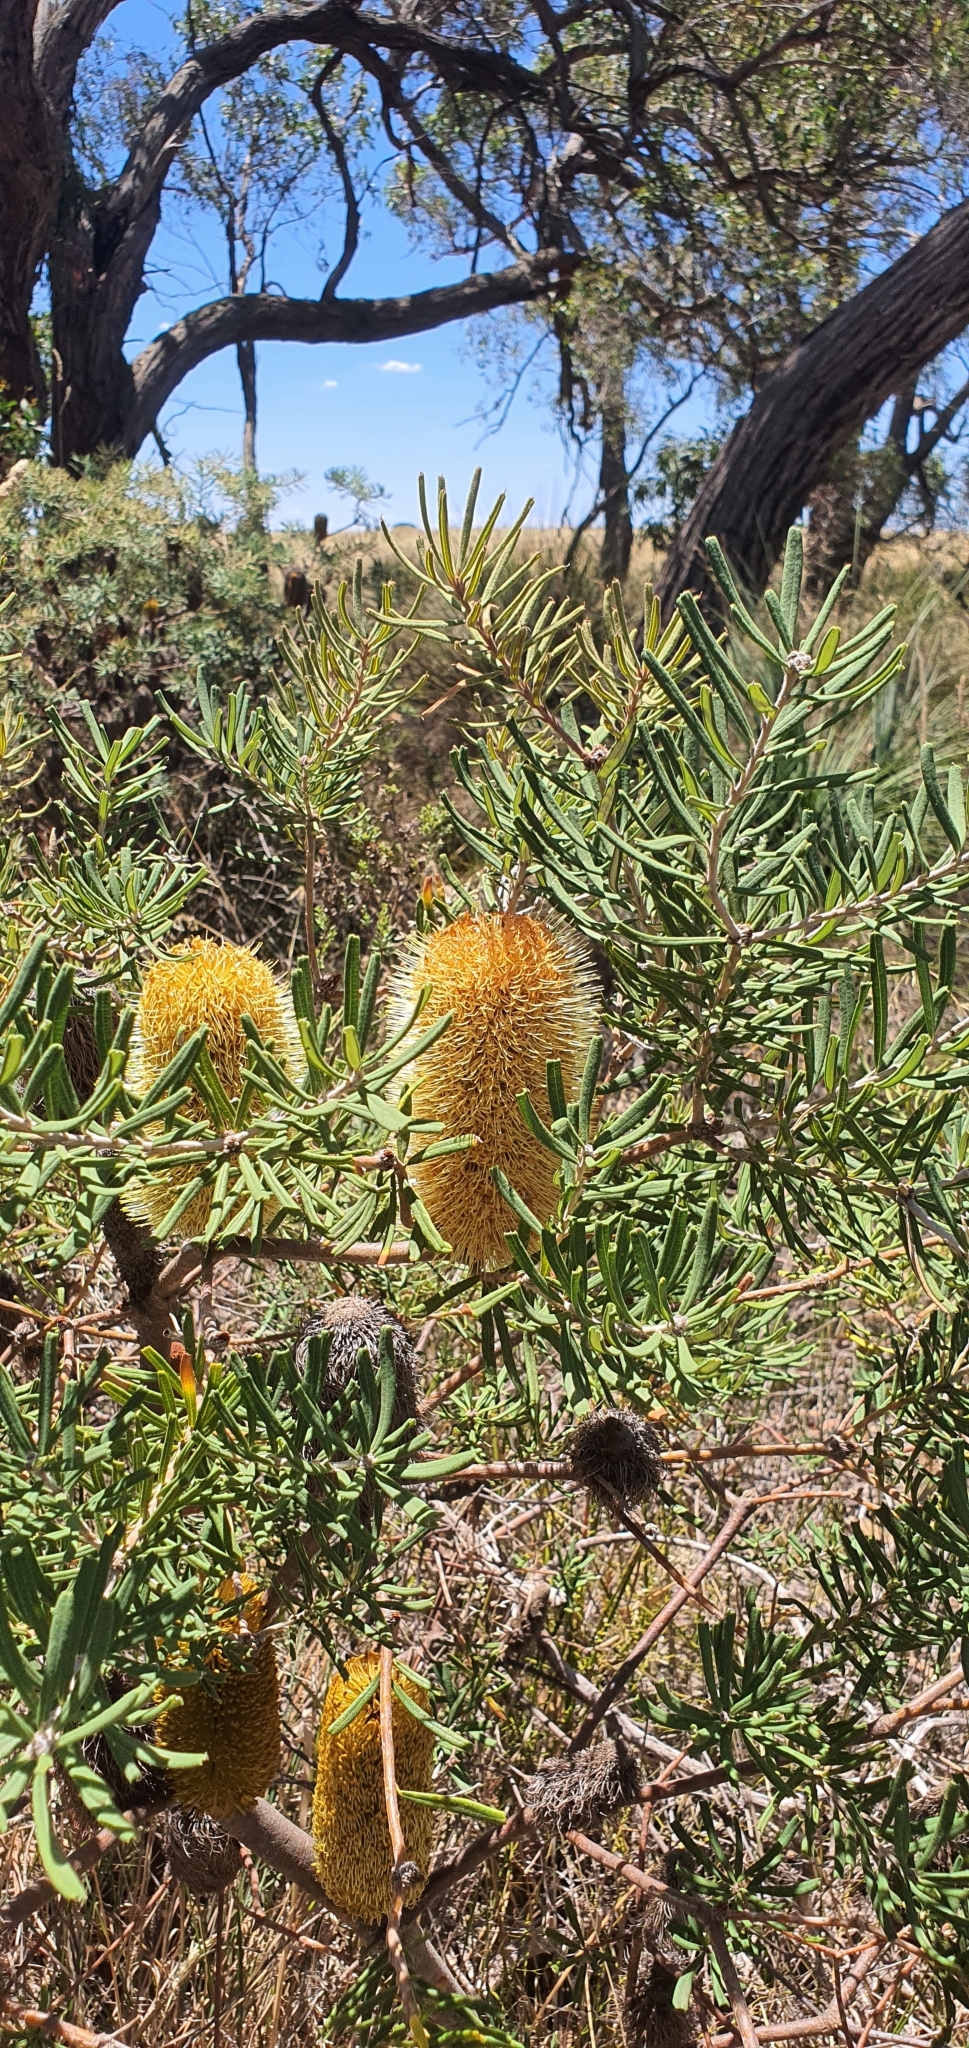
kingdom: Plantae
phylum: Tracheophyta
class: Magnoliopsida
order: Proteales
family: Proteaceae
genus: Banksia
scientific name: Banksia marginata
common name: Silver banksia
